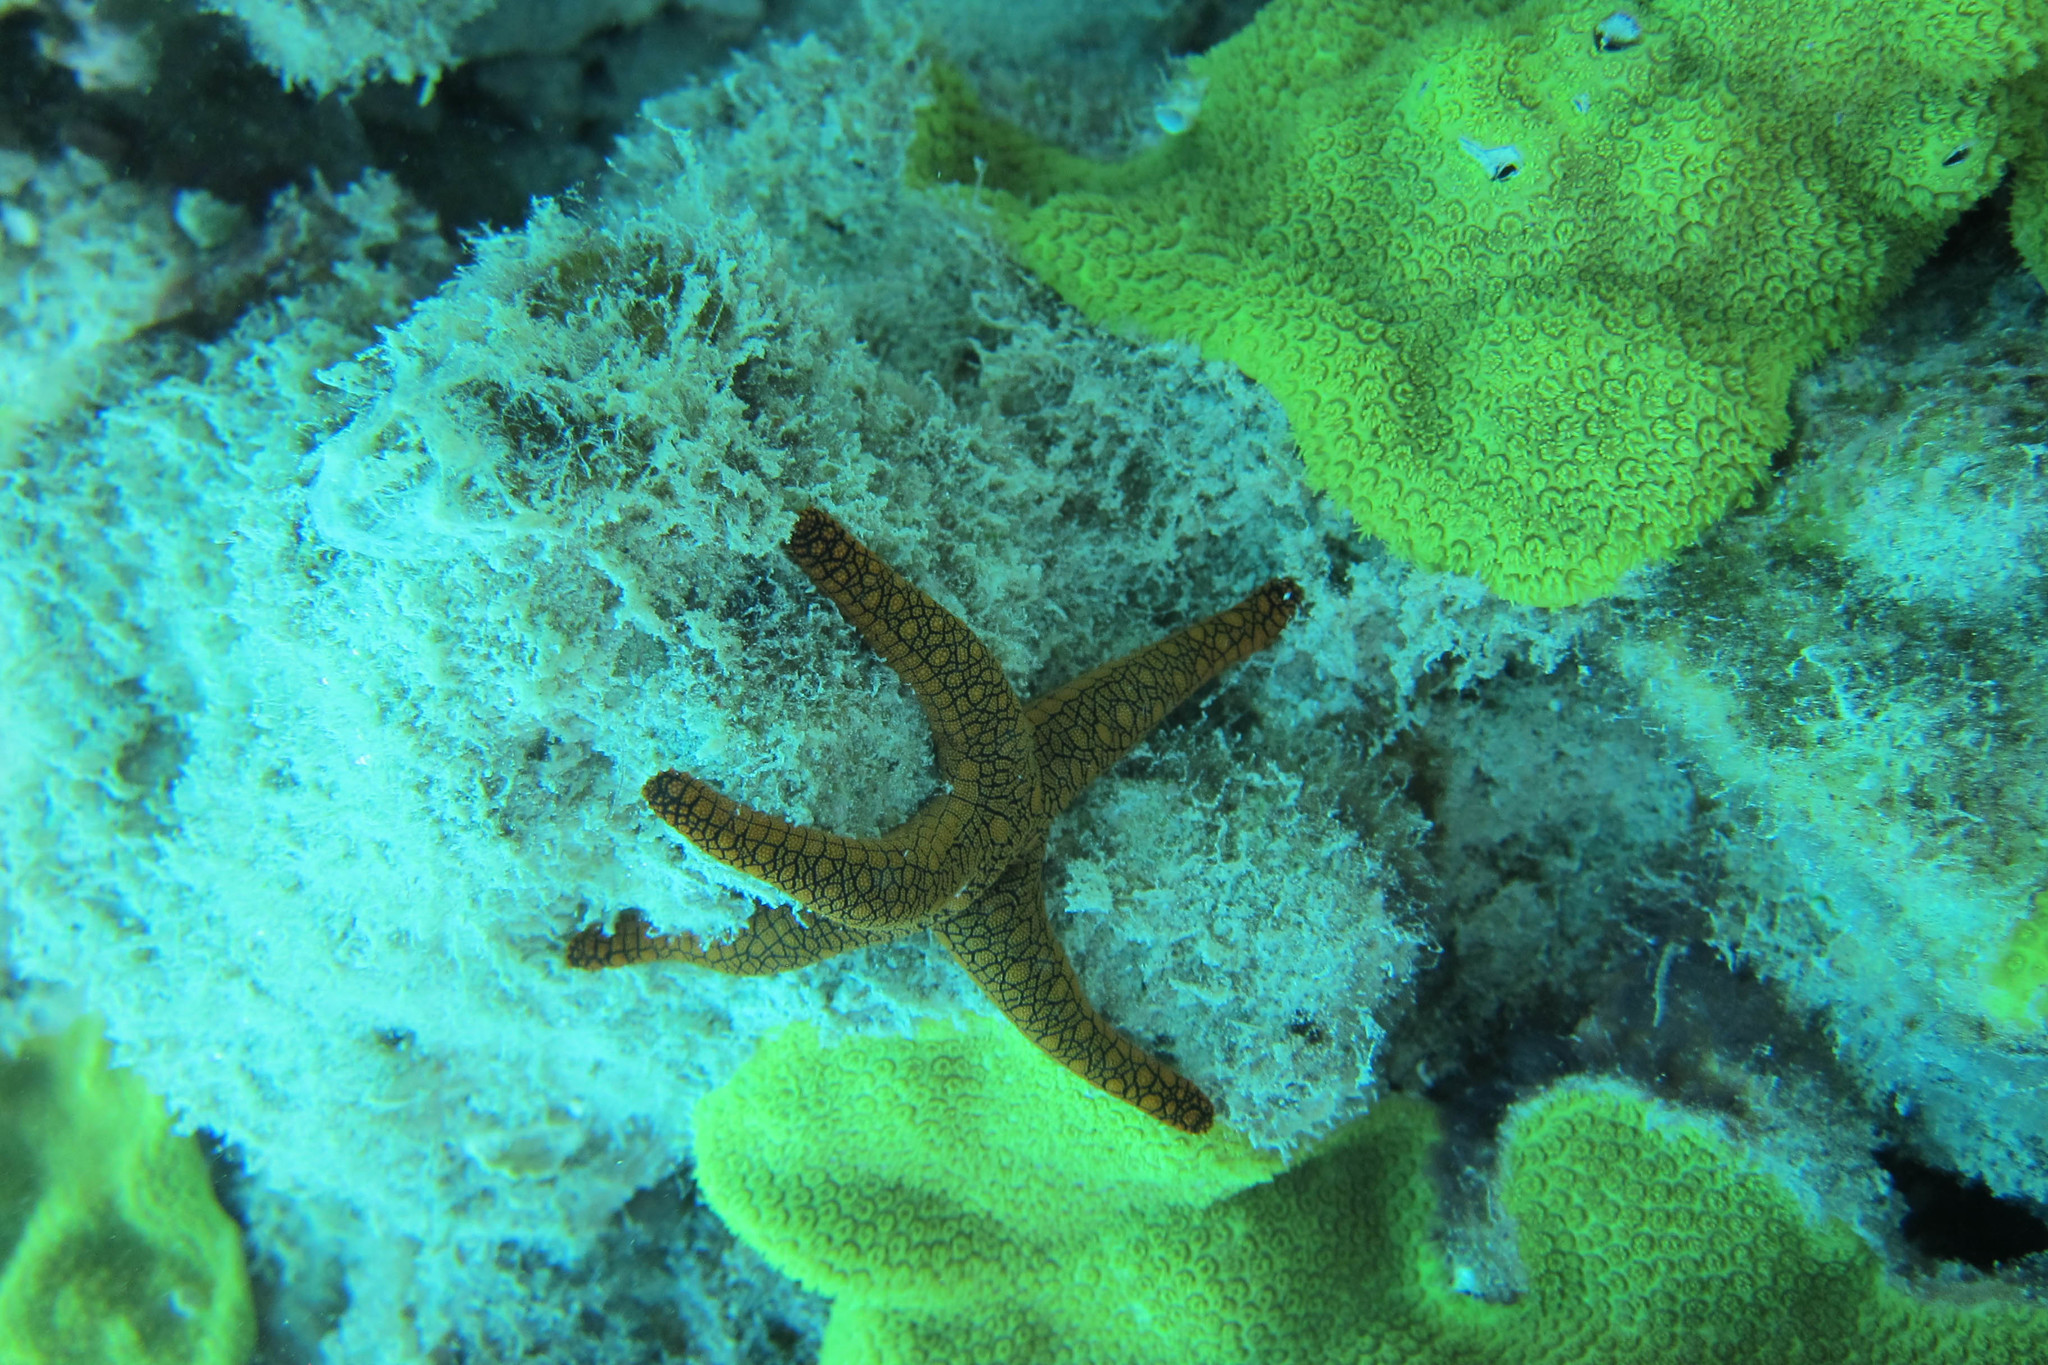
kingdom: Animalia
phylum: Echinodermata
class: Asteroidea
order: Valvatida
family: Goniasteridae
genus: Fromia
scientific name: Fromia indica
